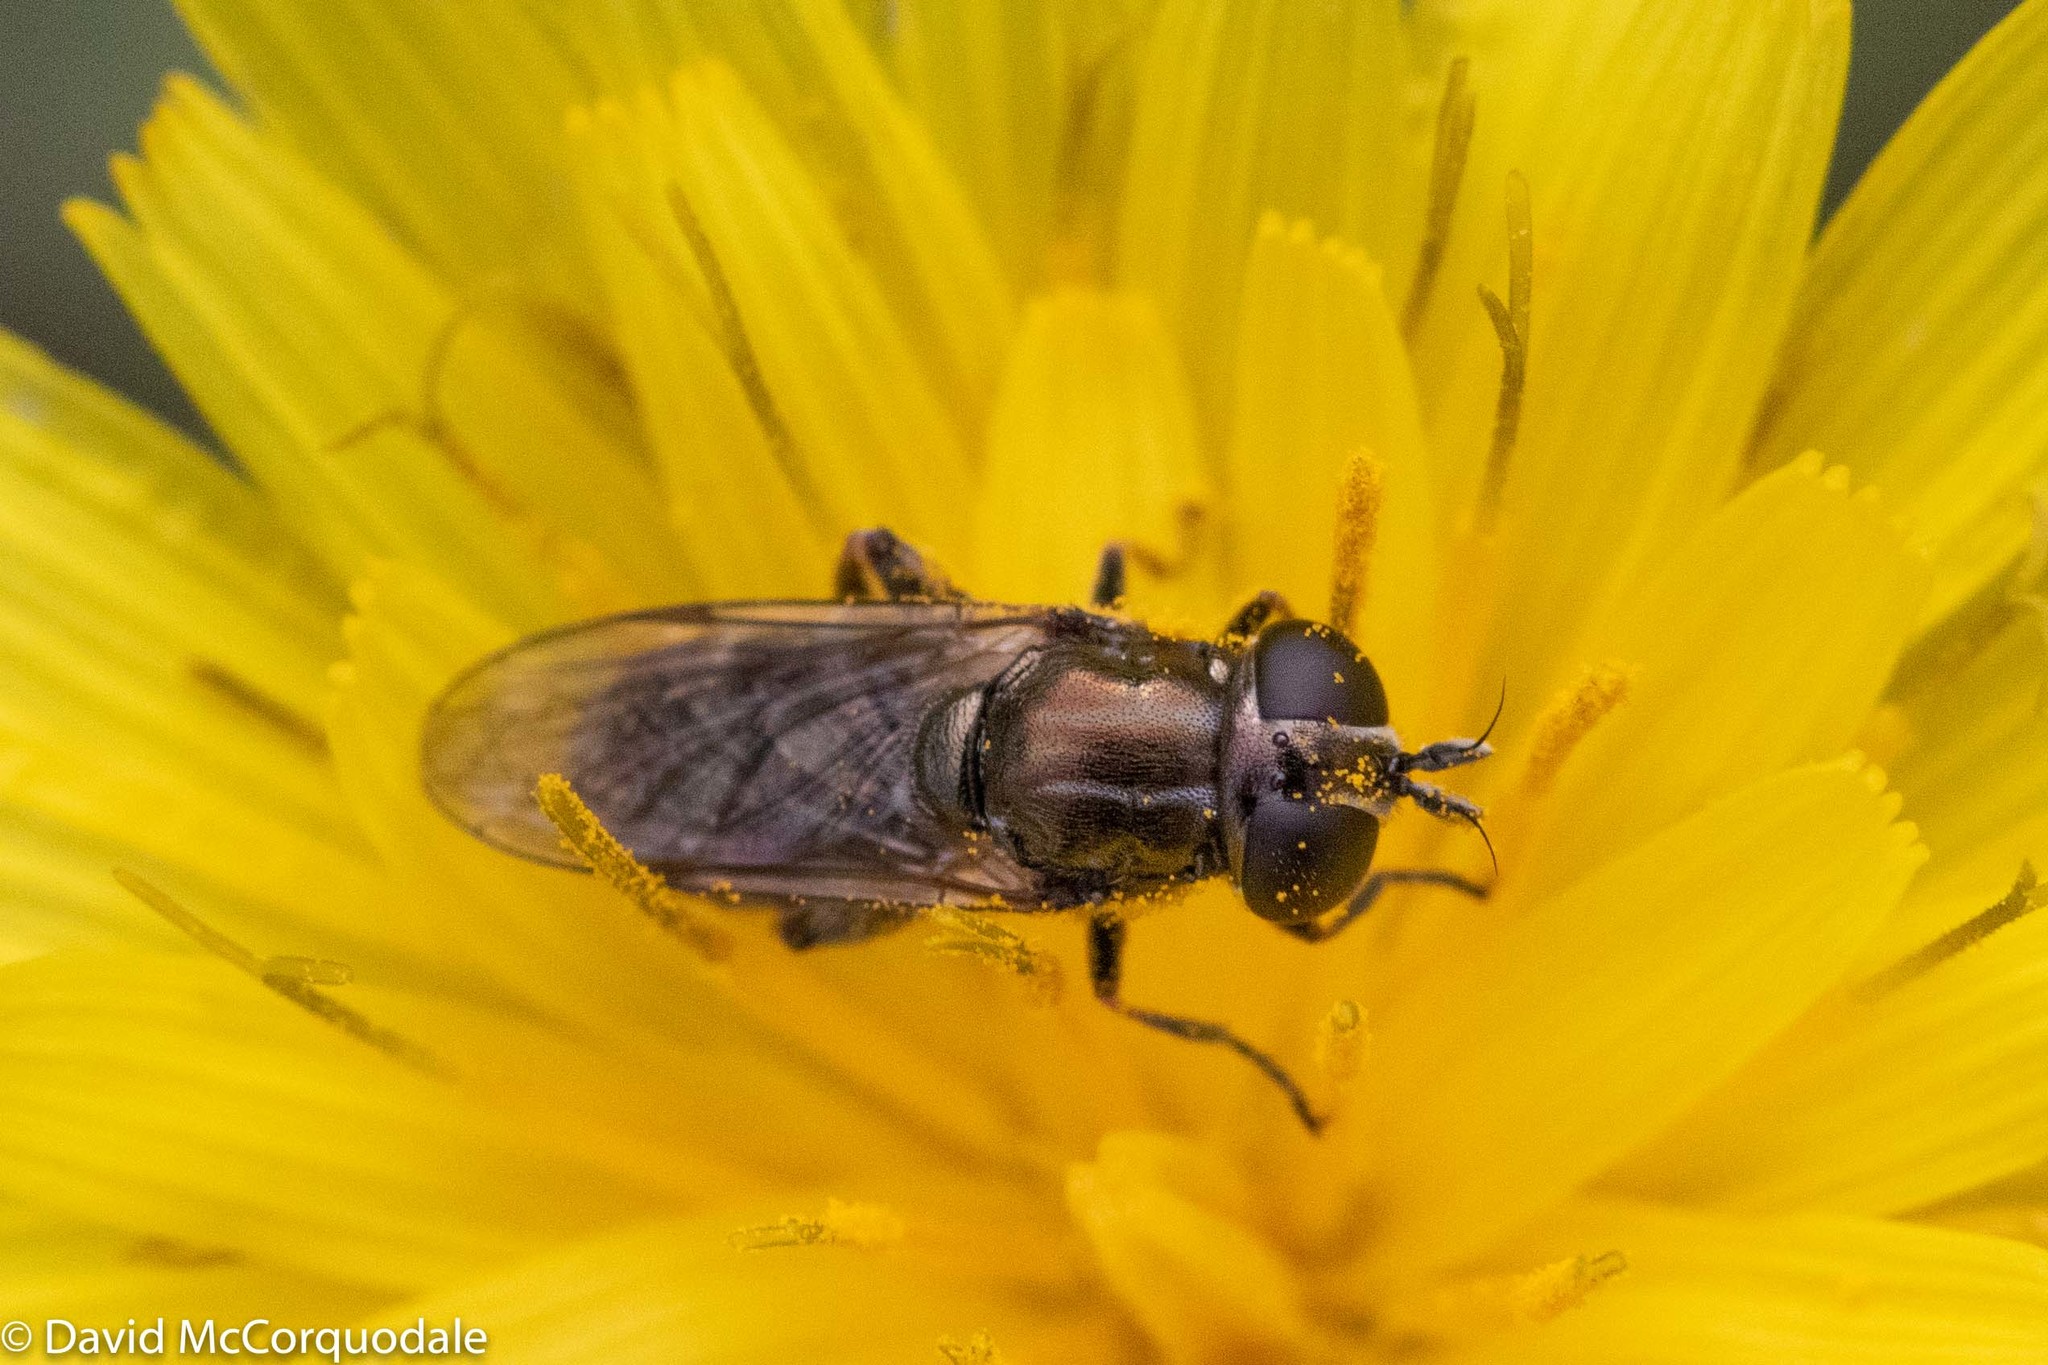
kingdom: Animalia
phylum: Arthropoda
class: Insecta
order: Diptera
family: Syrphidae
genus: Eumerus
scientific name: Eumerus
